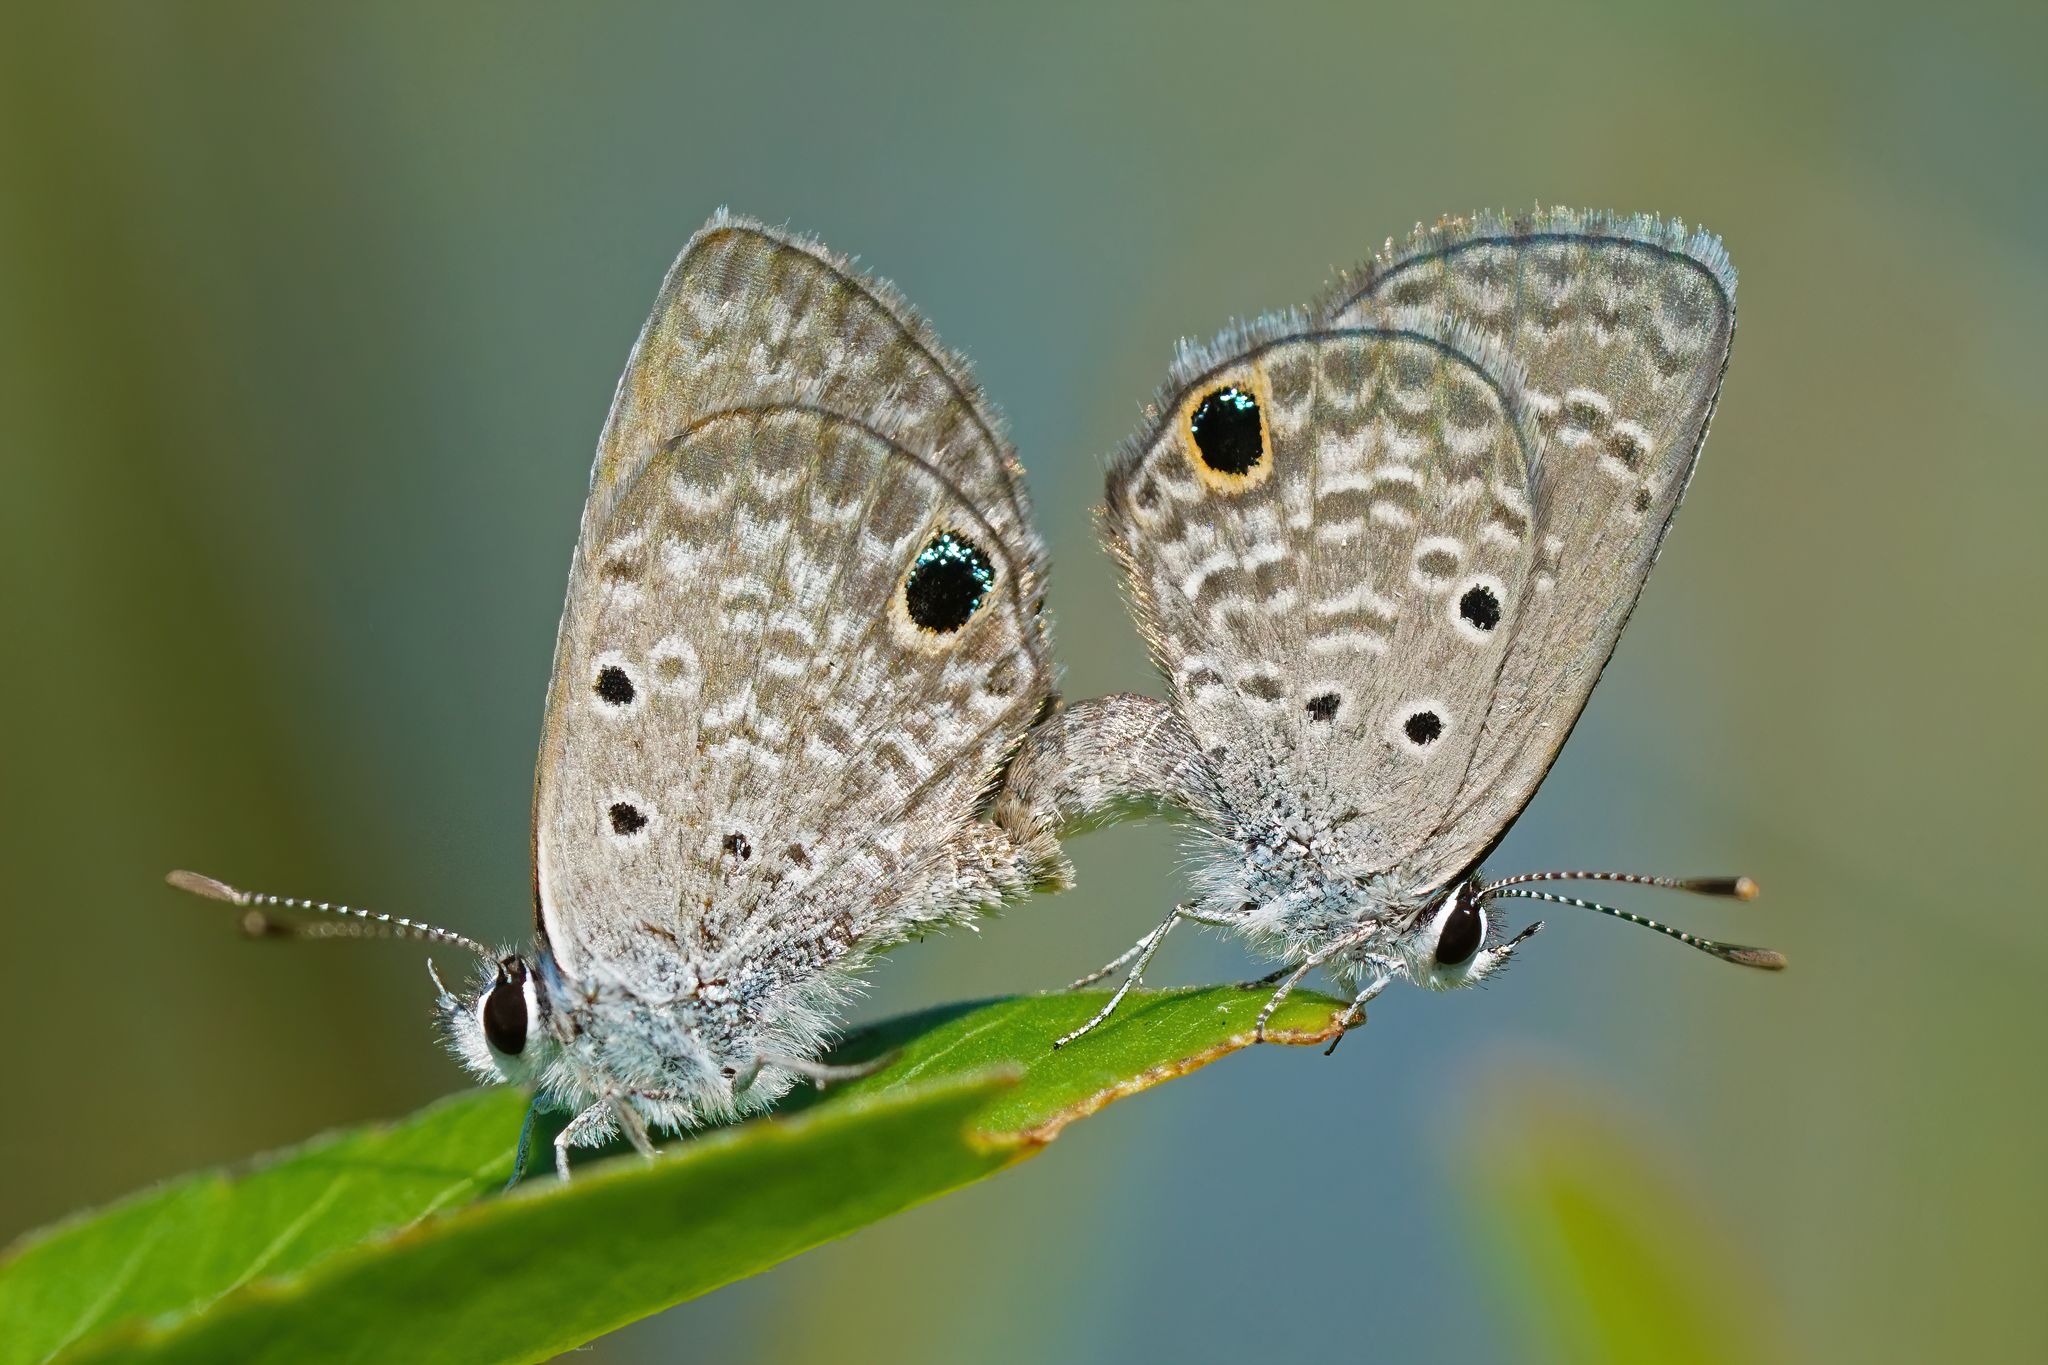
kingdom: Animalia
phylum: Arthropoda
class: Insecta
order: Lepidoptera
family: Lycaenidae
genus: Hemiargus
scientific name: Hemiargus ceraunus
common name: Ceraunus blue
